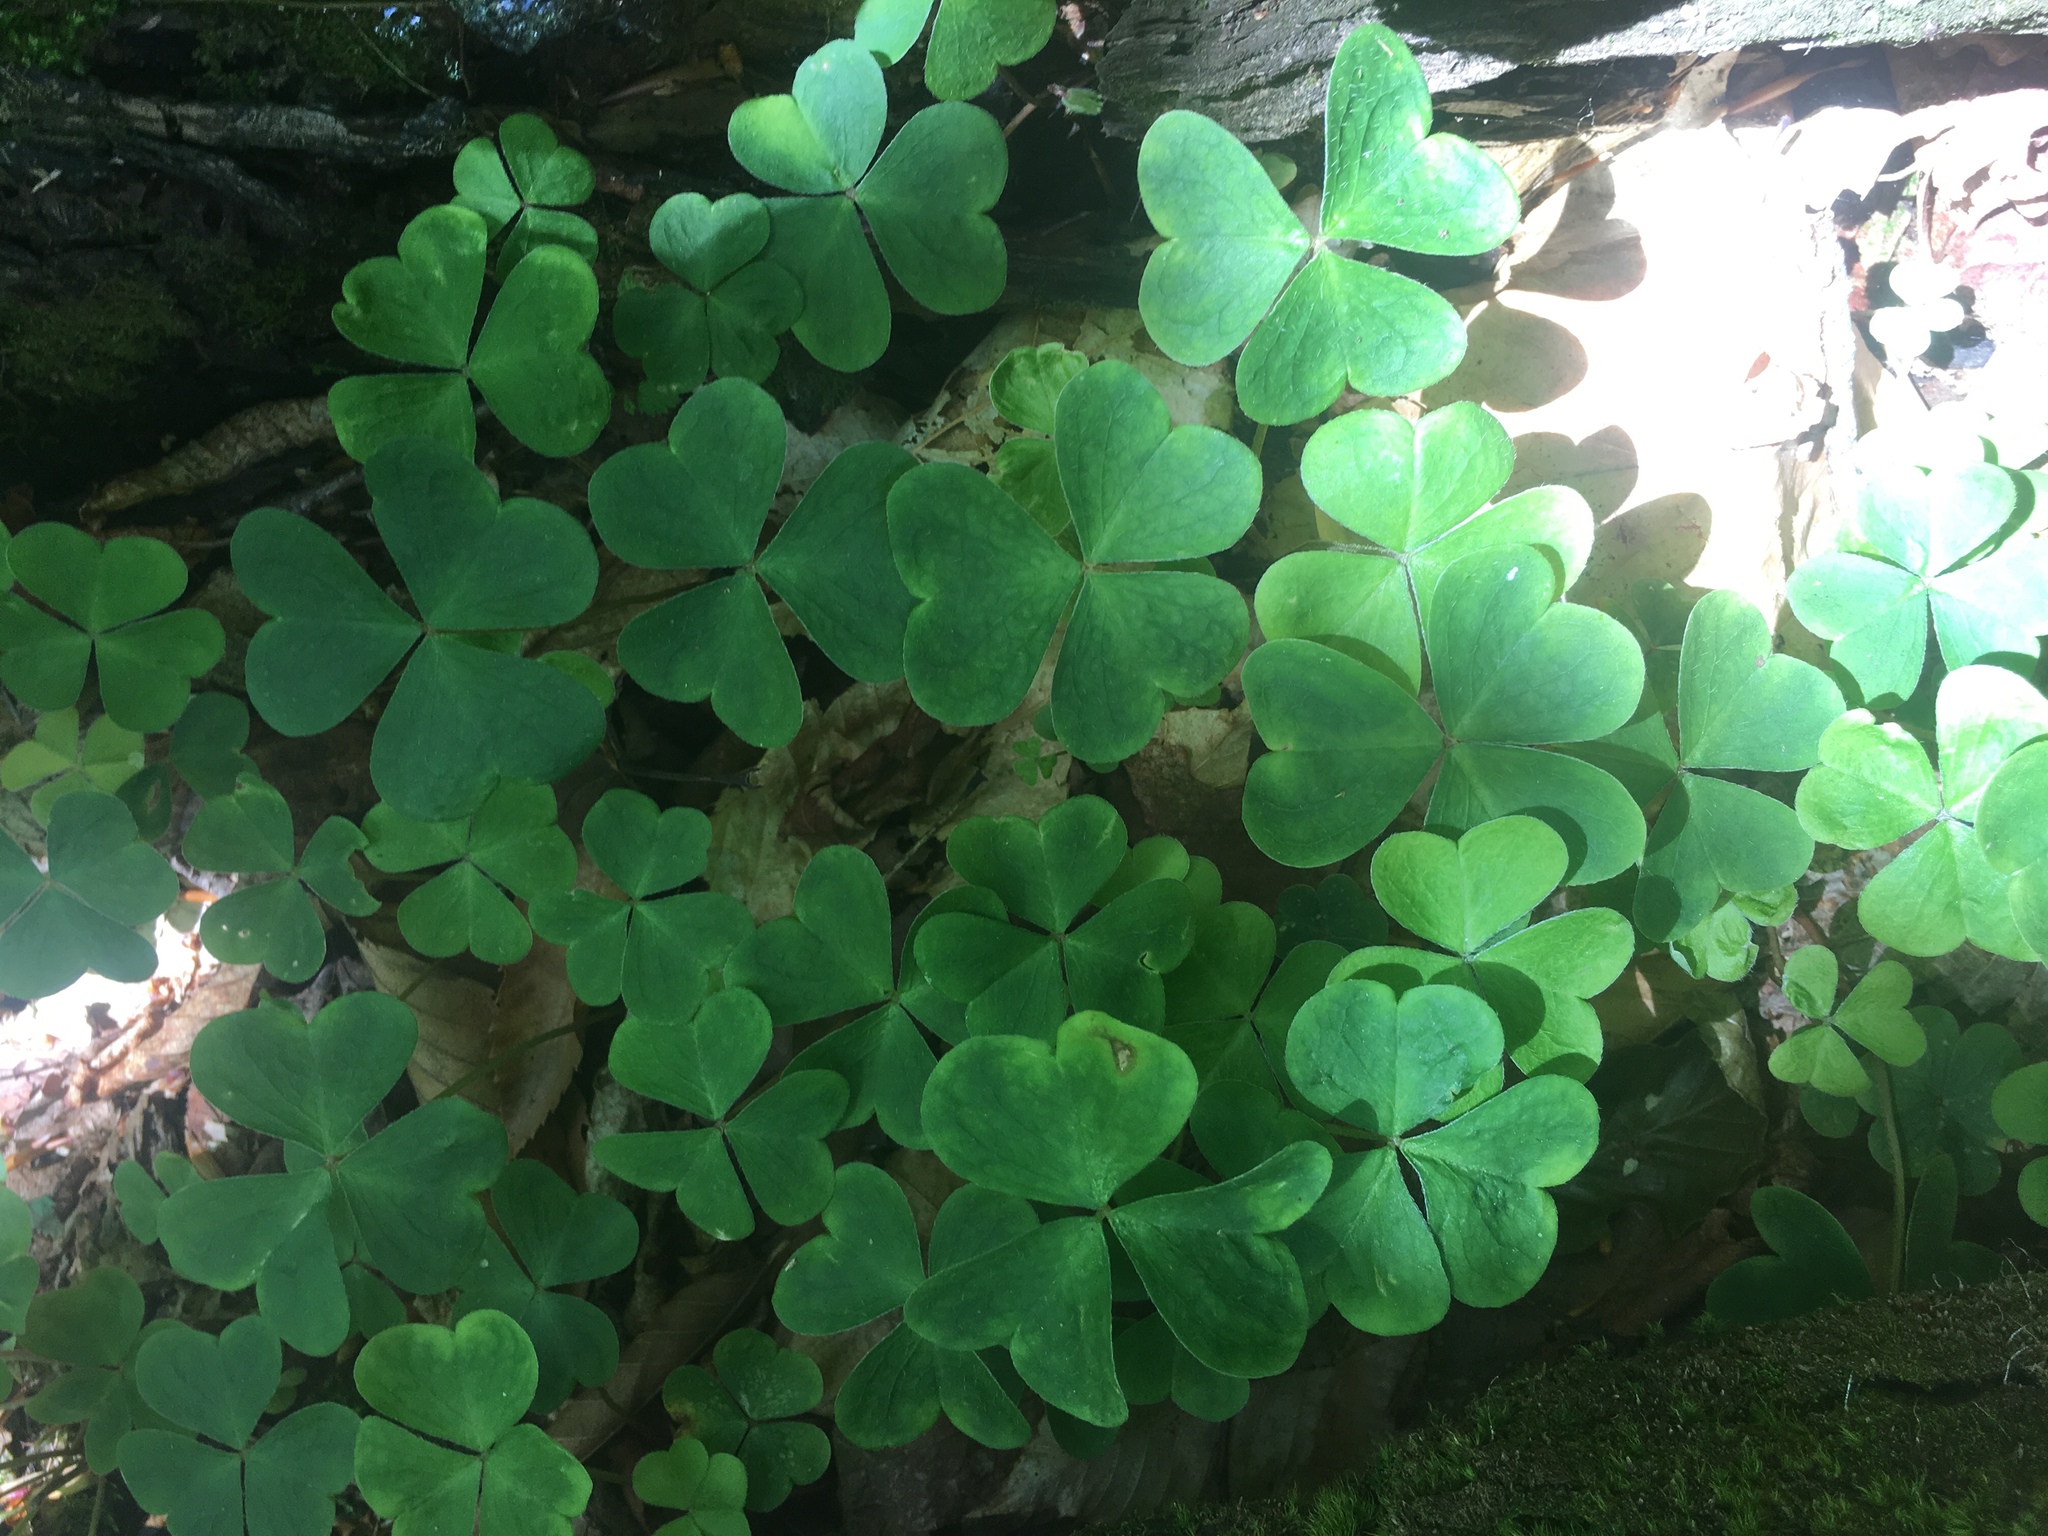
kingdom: Plantae
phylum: Tracheophyta
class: Magnoliopsida
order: Oxalidales
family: Oxalidaceae
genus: Oxalis
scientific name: Oxalis montana
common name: American wood-sorrel
